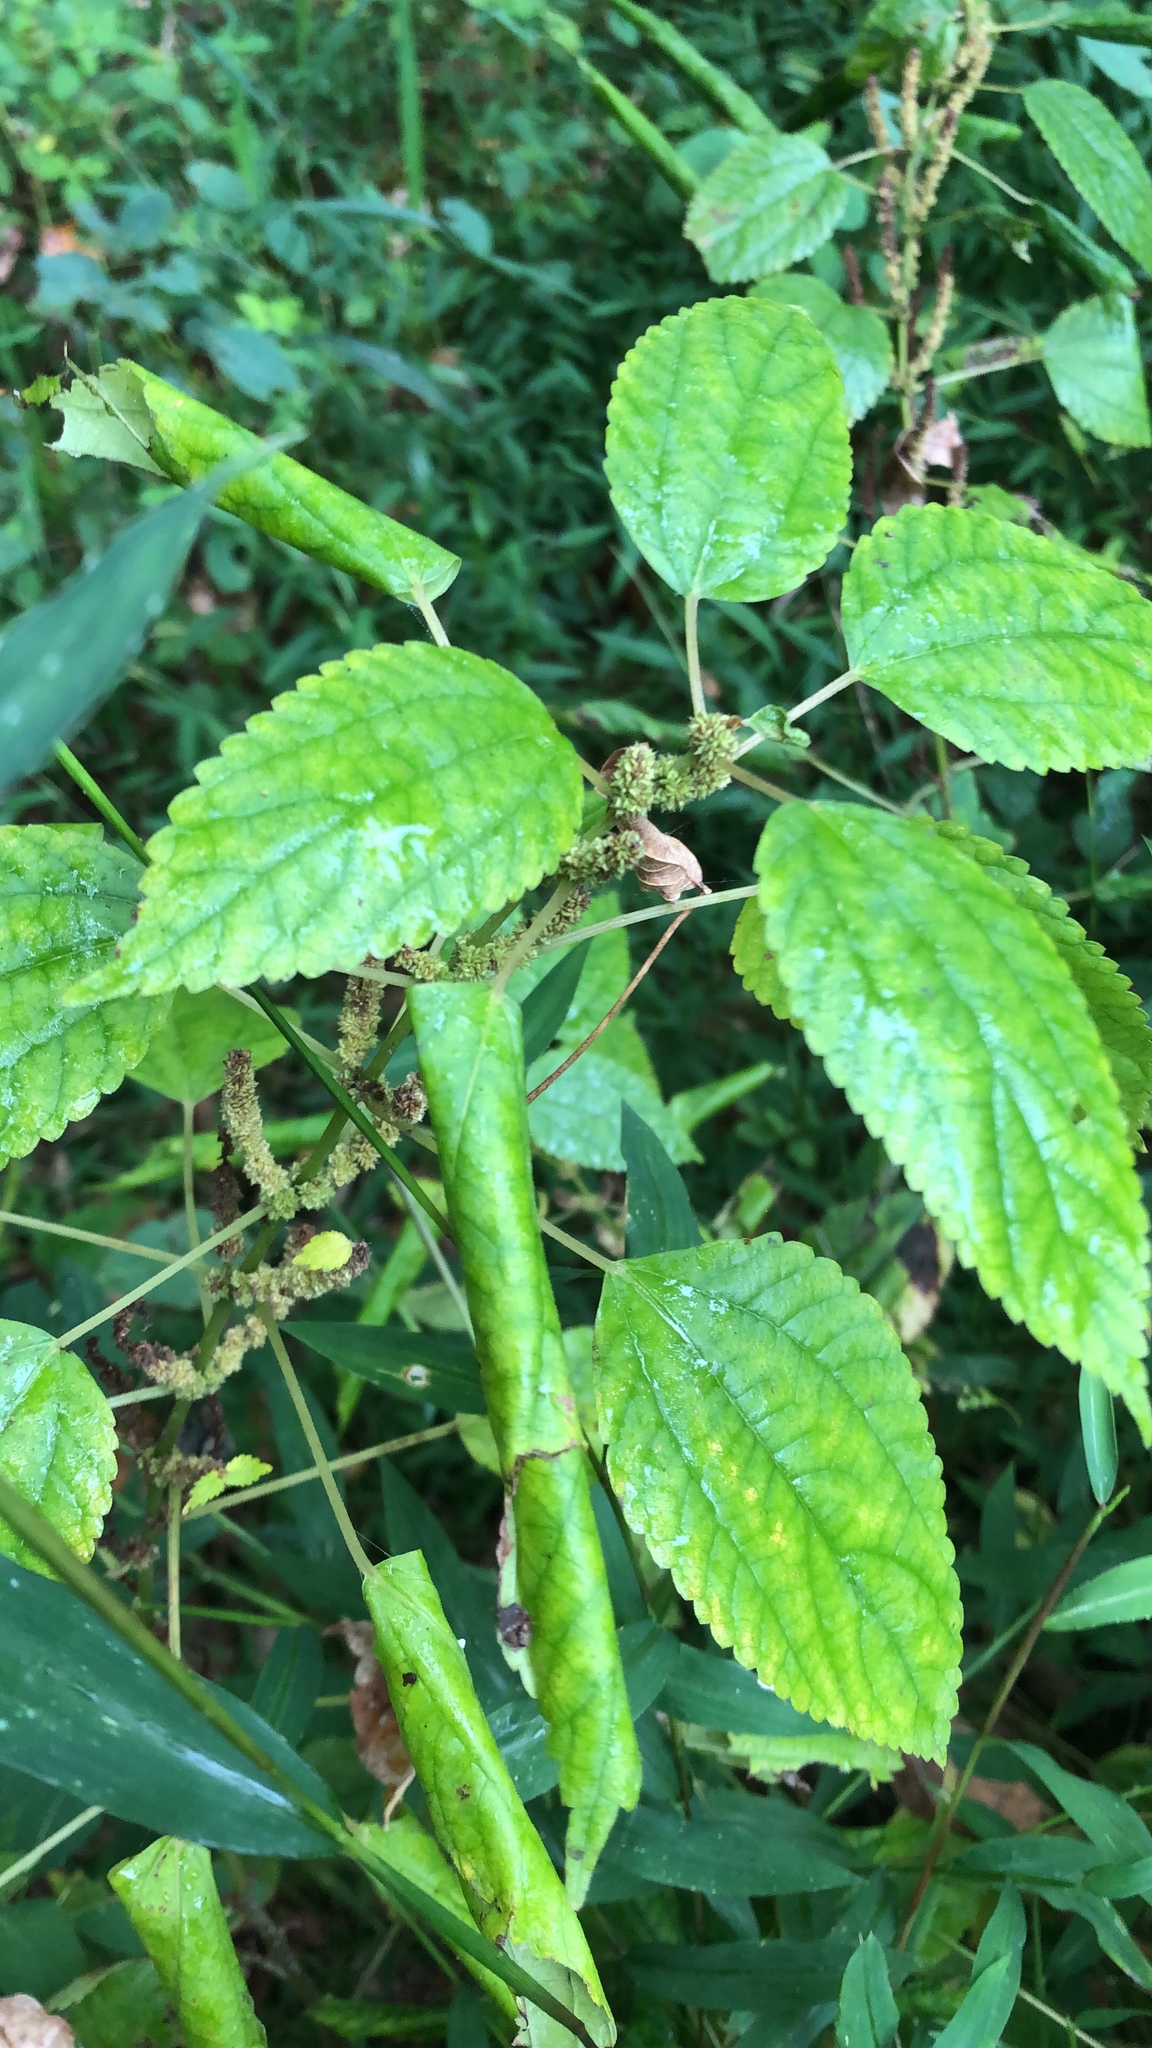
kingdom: Plantae
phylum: Tracheophyta
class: Magnoliopsida
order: Rosales
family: Urticaceae
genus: Boehmeria
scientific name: Boehmeria cylindrica
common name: Bog-hemp
